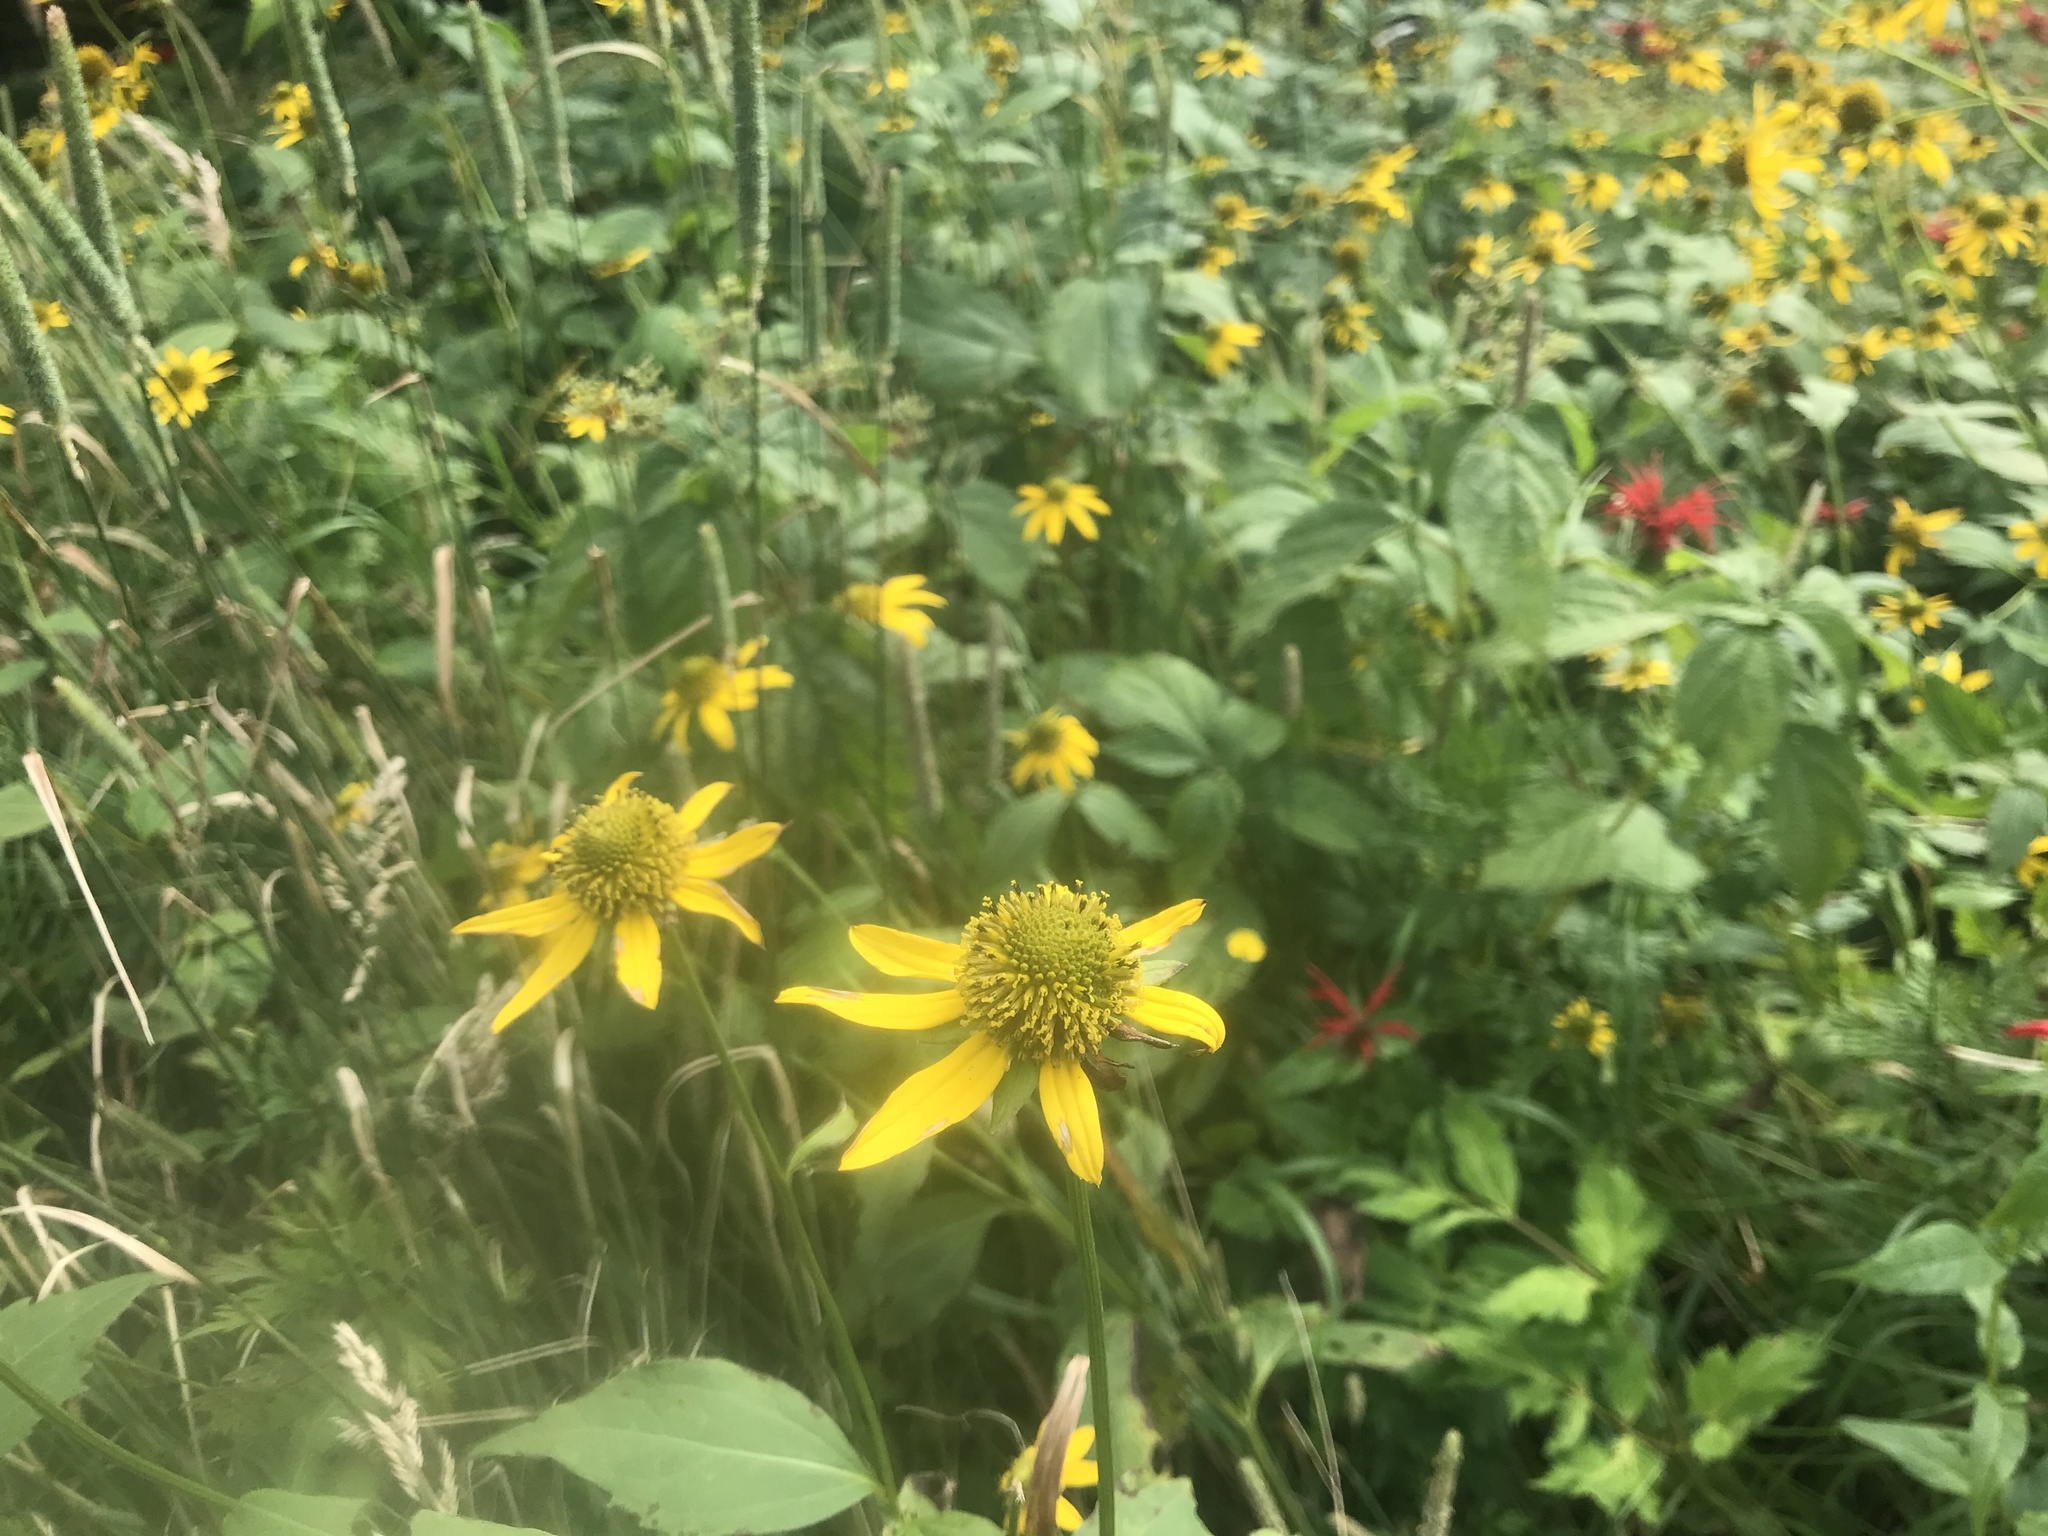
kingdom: Plantae
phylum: Tracheophyta
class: Magnoliopsida
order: Asterales
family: Asteraceae
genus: Rudbeckia
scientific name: Rudbeckia laciniata
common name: Coneflower
